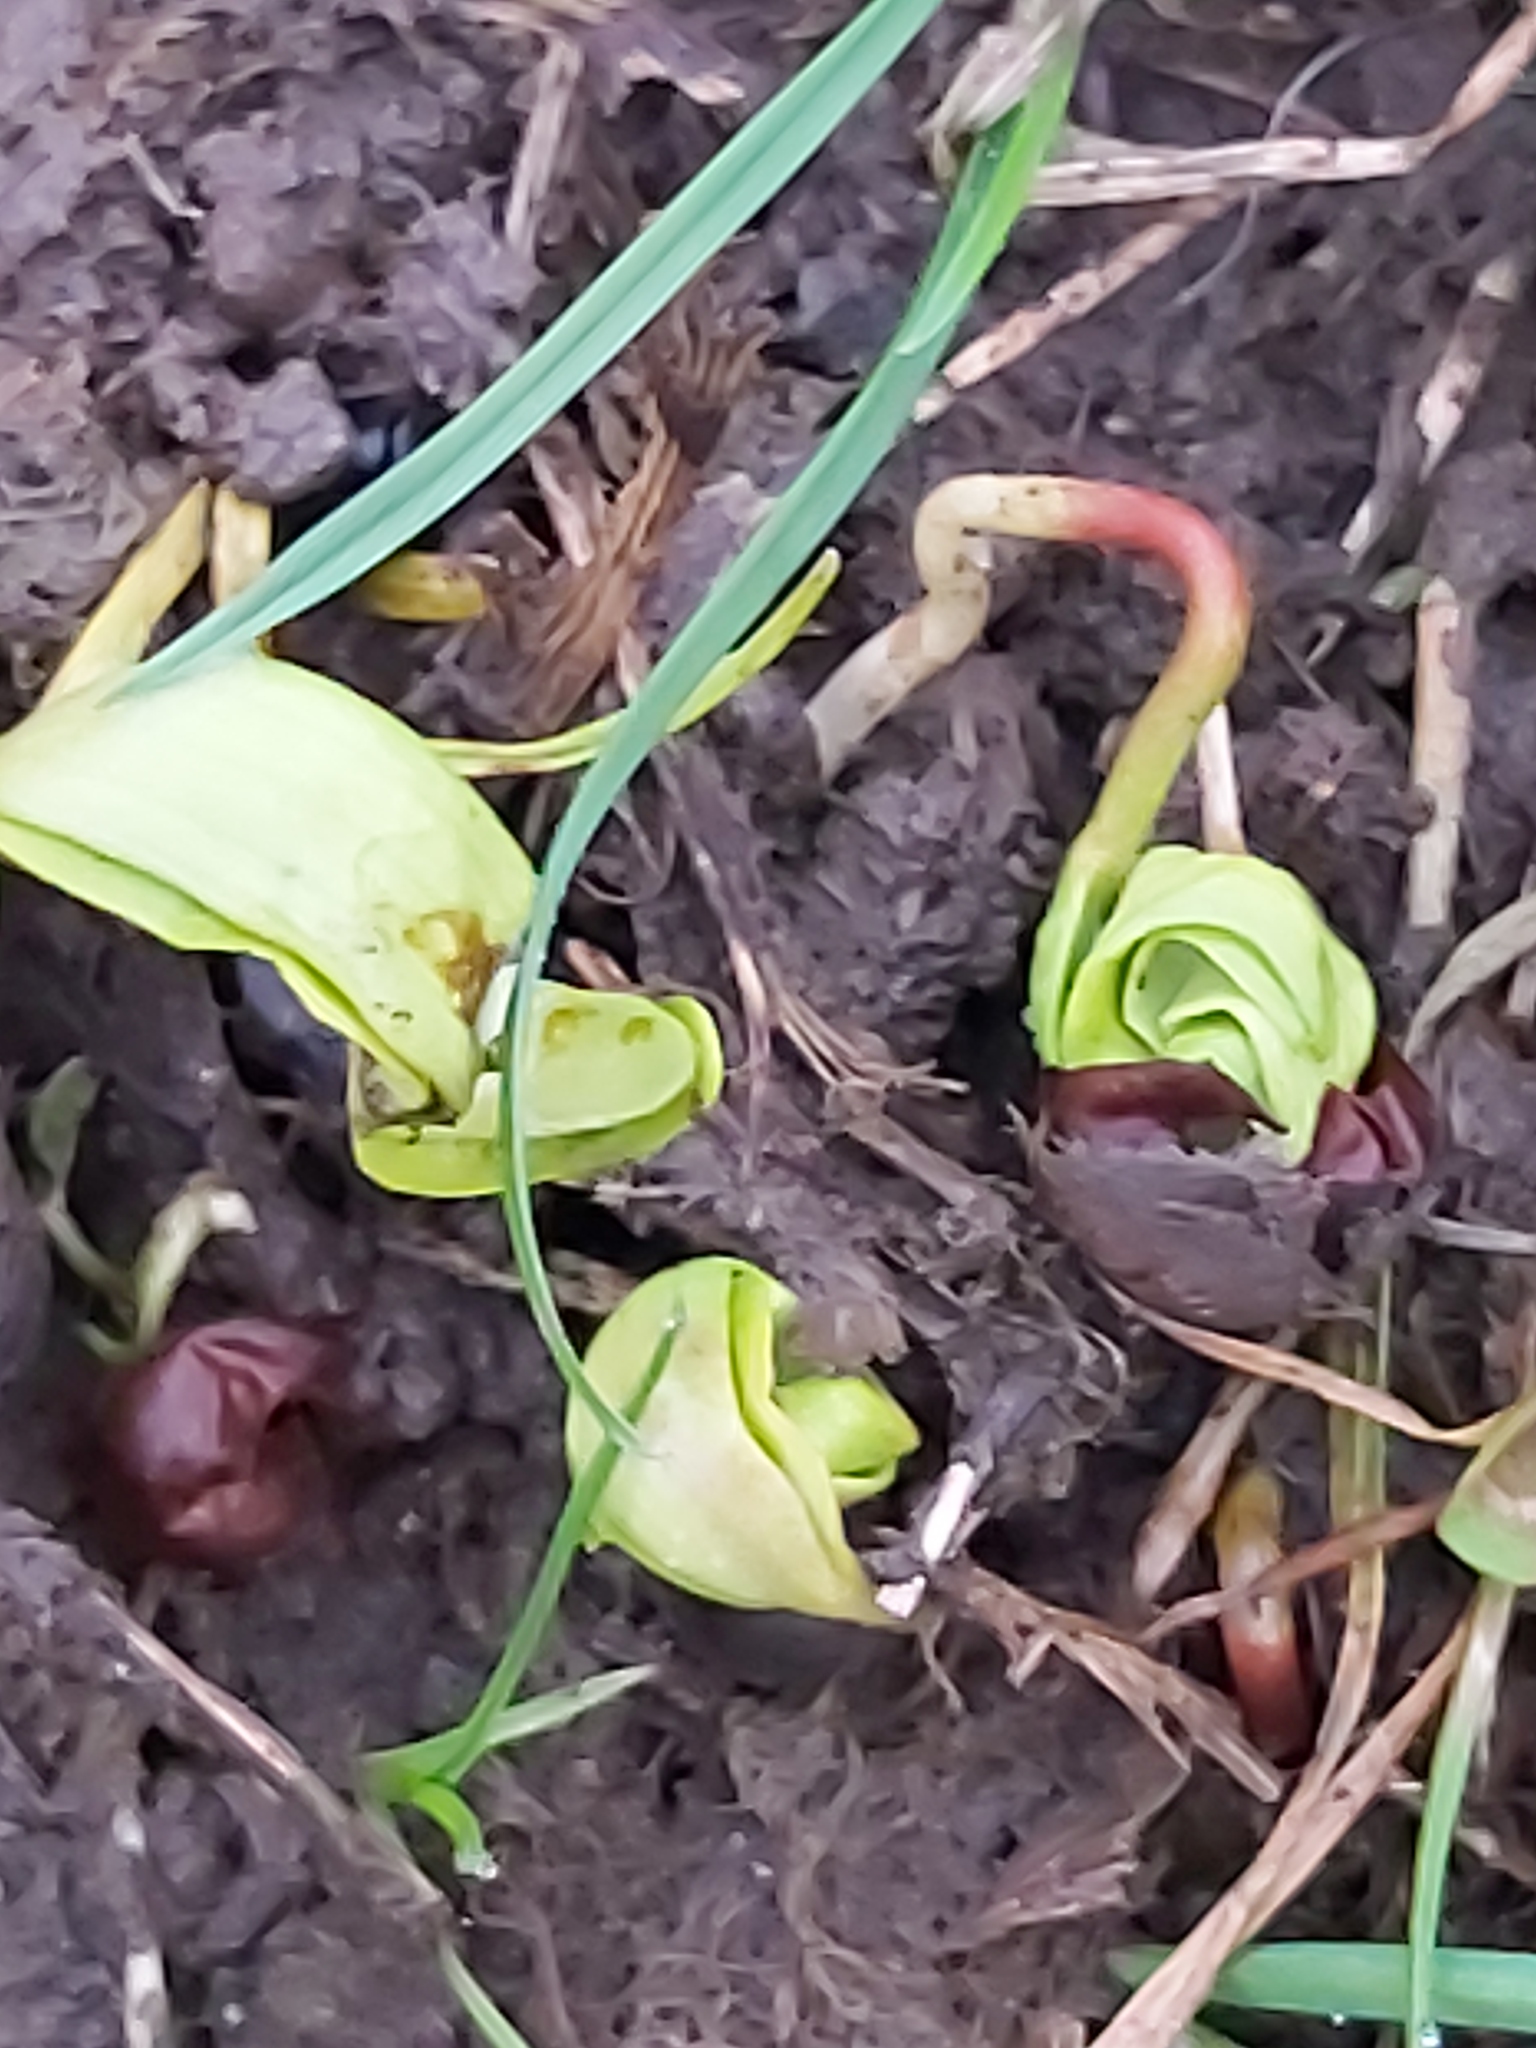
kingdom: Plantae
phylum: Tracheophyta
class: Magnoliopsida
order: Sapindales
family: Sapindaceae
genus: Acer
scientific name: Acer pseudoplatanus
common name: Sycamore
